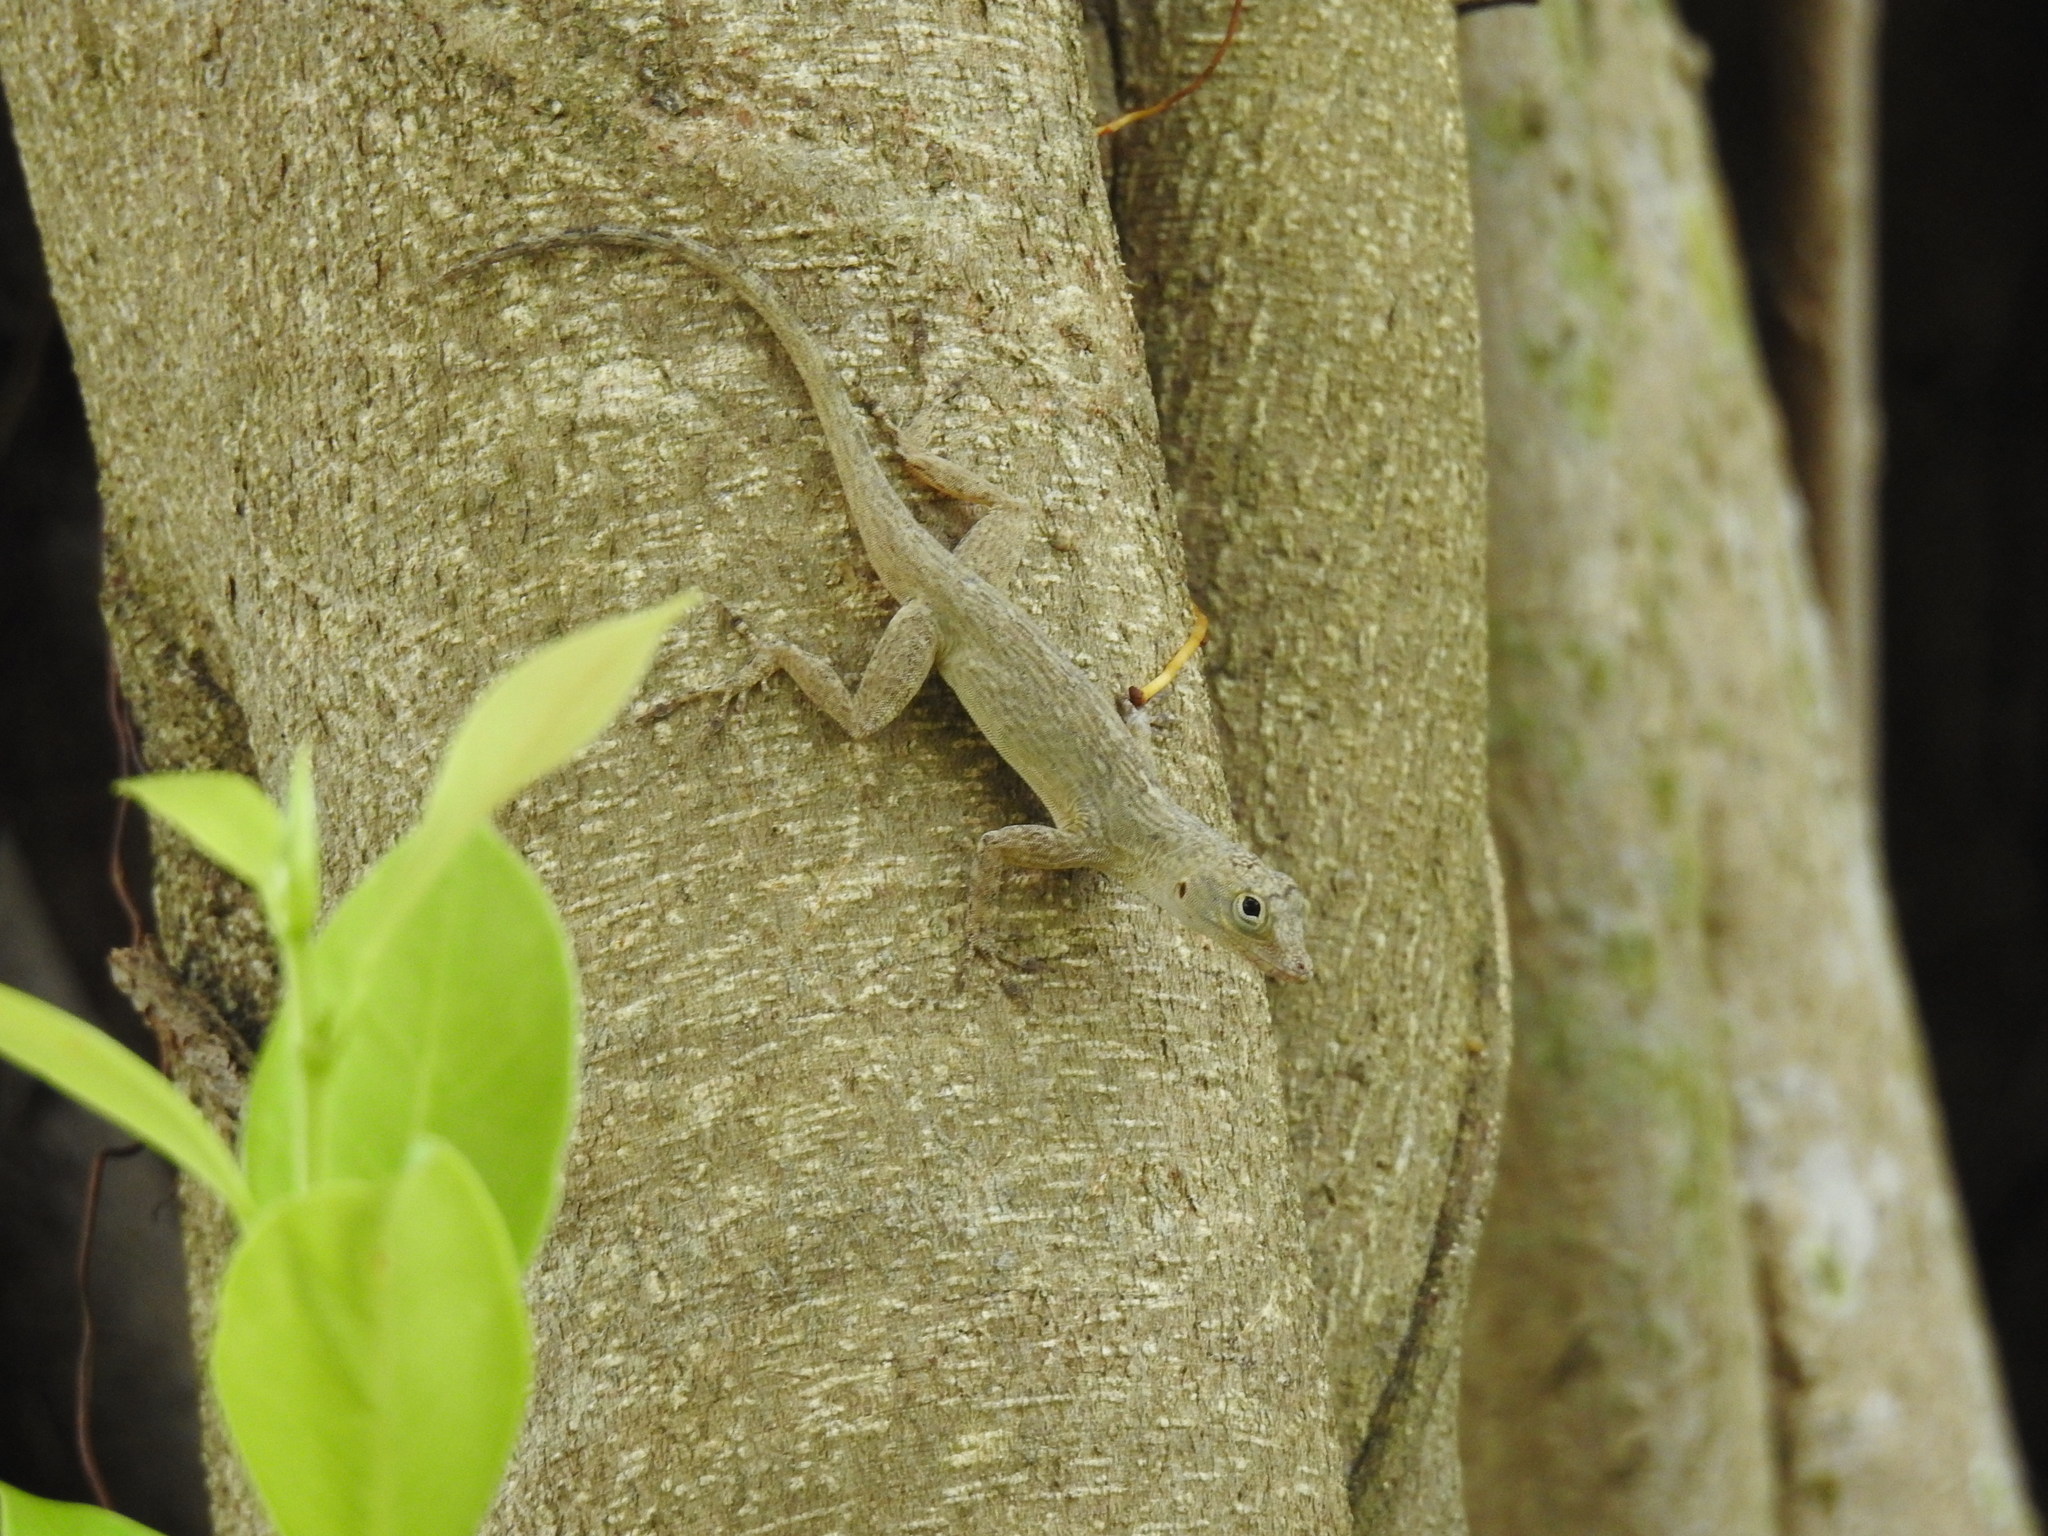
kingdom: Animalia
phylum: Chordata
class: Squamata
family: Dactyloidae
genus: Anolis
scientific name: Anolis distichus
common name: Bark anole
